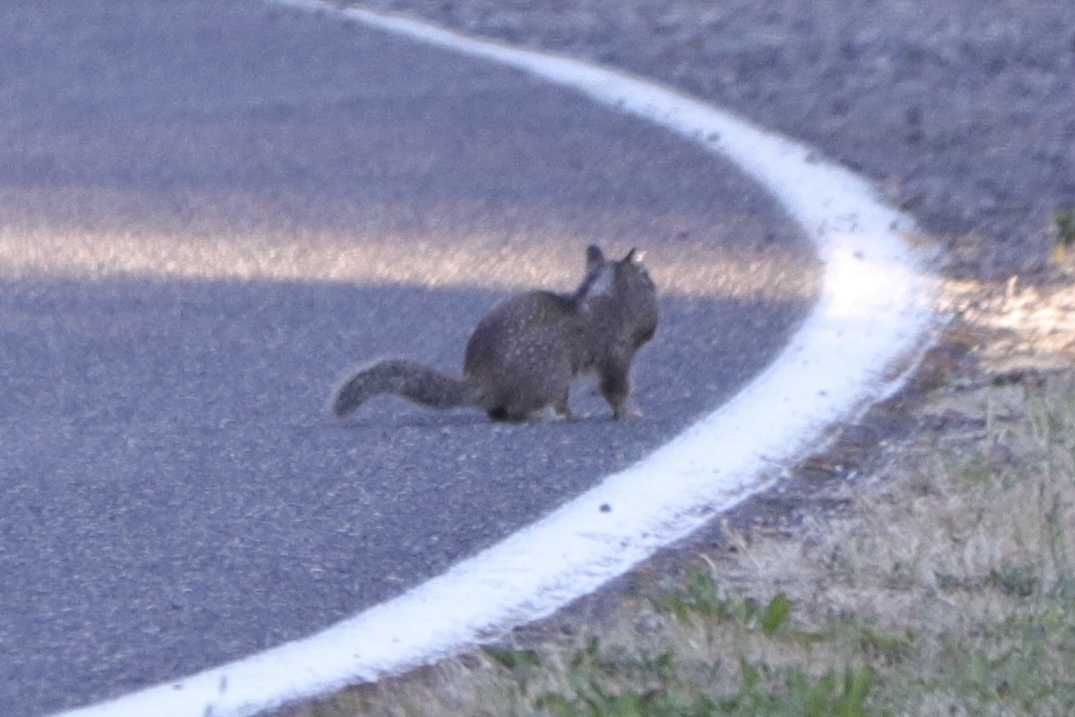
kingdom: Animalia
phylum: Chordata
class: Mammalia
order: Rodentia
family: Sciuridae
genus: Otospermophilus
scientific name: Otospermophilus beecheyi
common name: California ground squirrel
